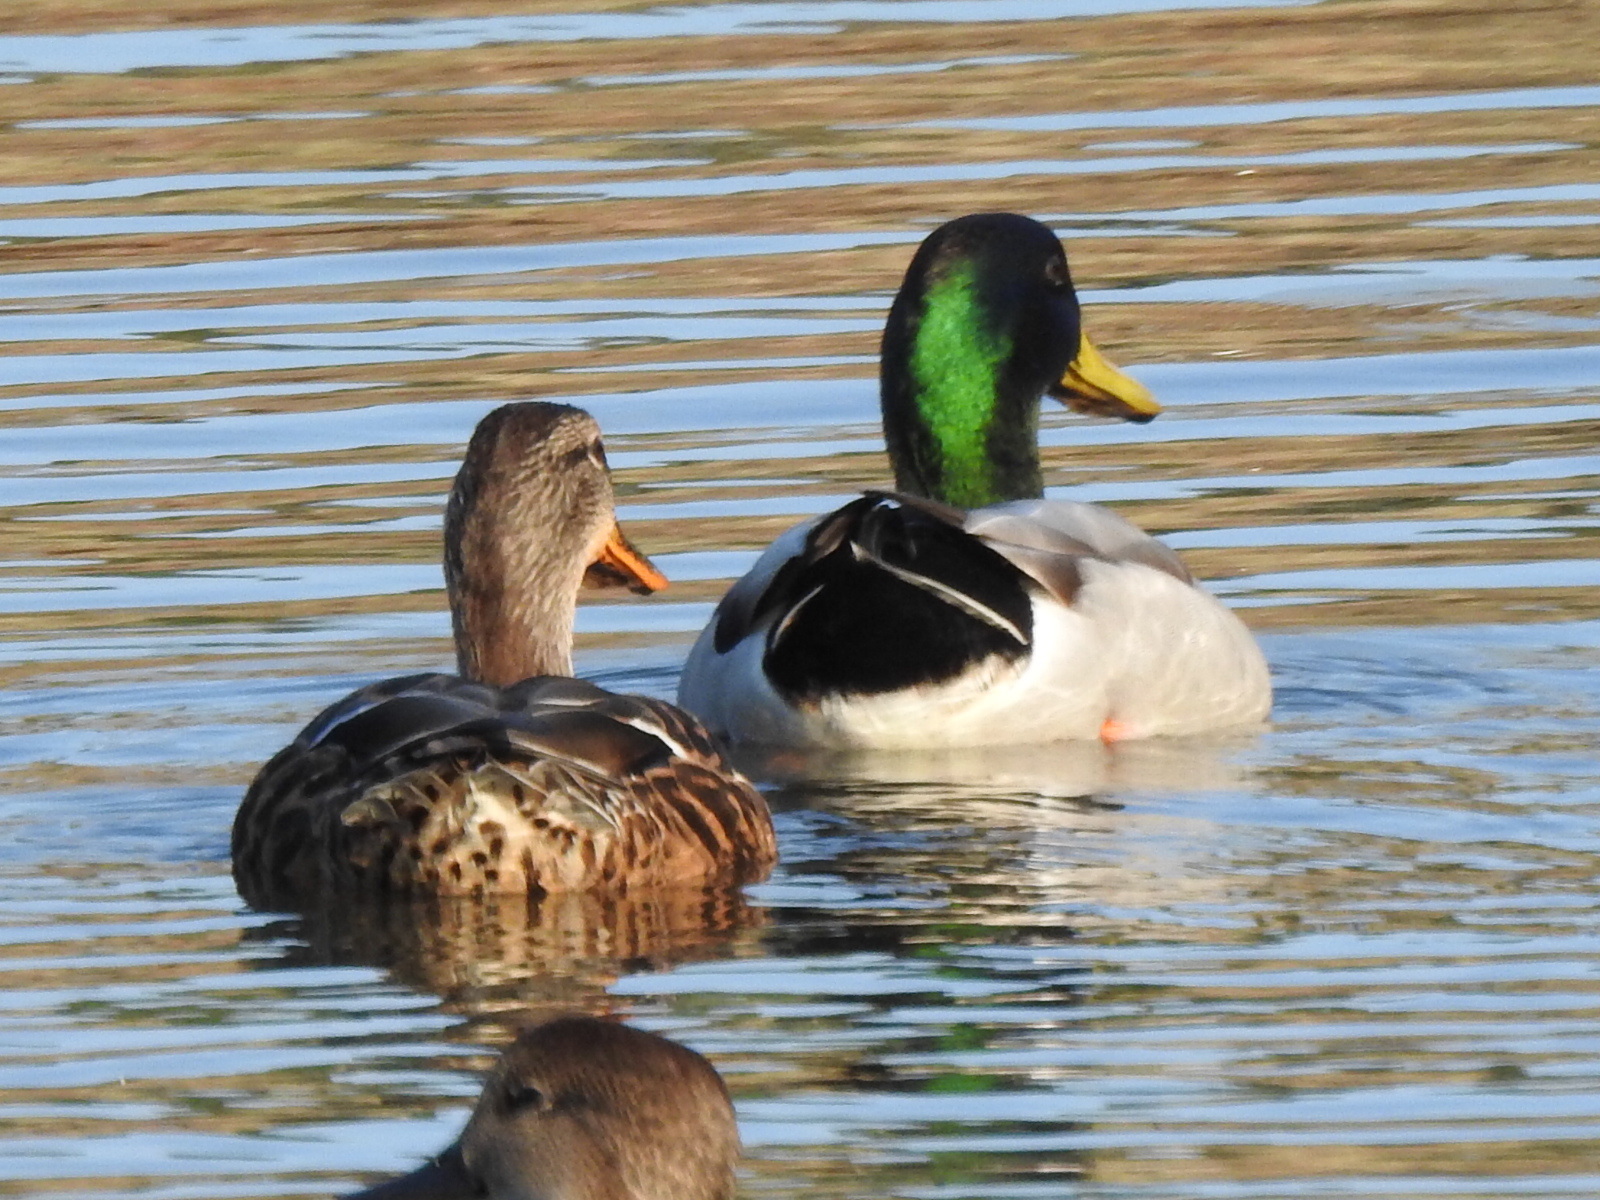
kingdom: Animalia
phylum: Chordata
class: Aves
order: Anseriformes
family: Anatidae
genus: Anas
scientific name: Anas platyrhynchos
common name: Mallard
